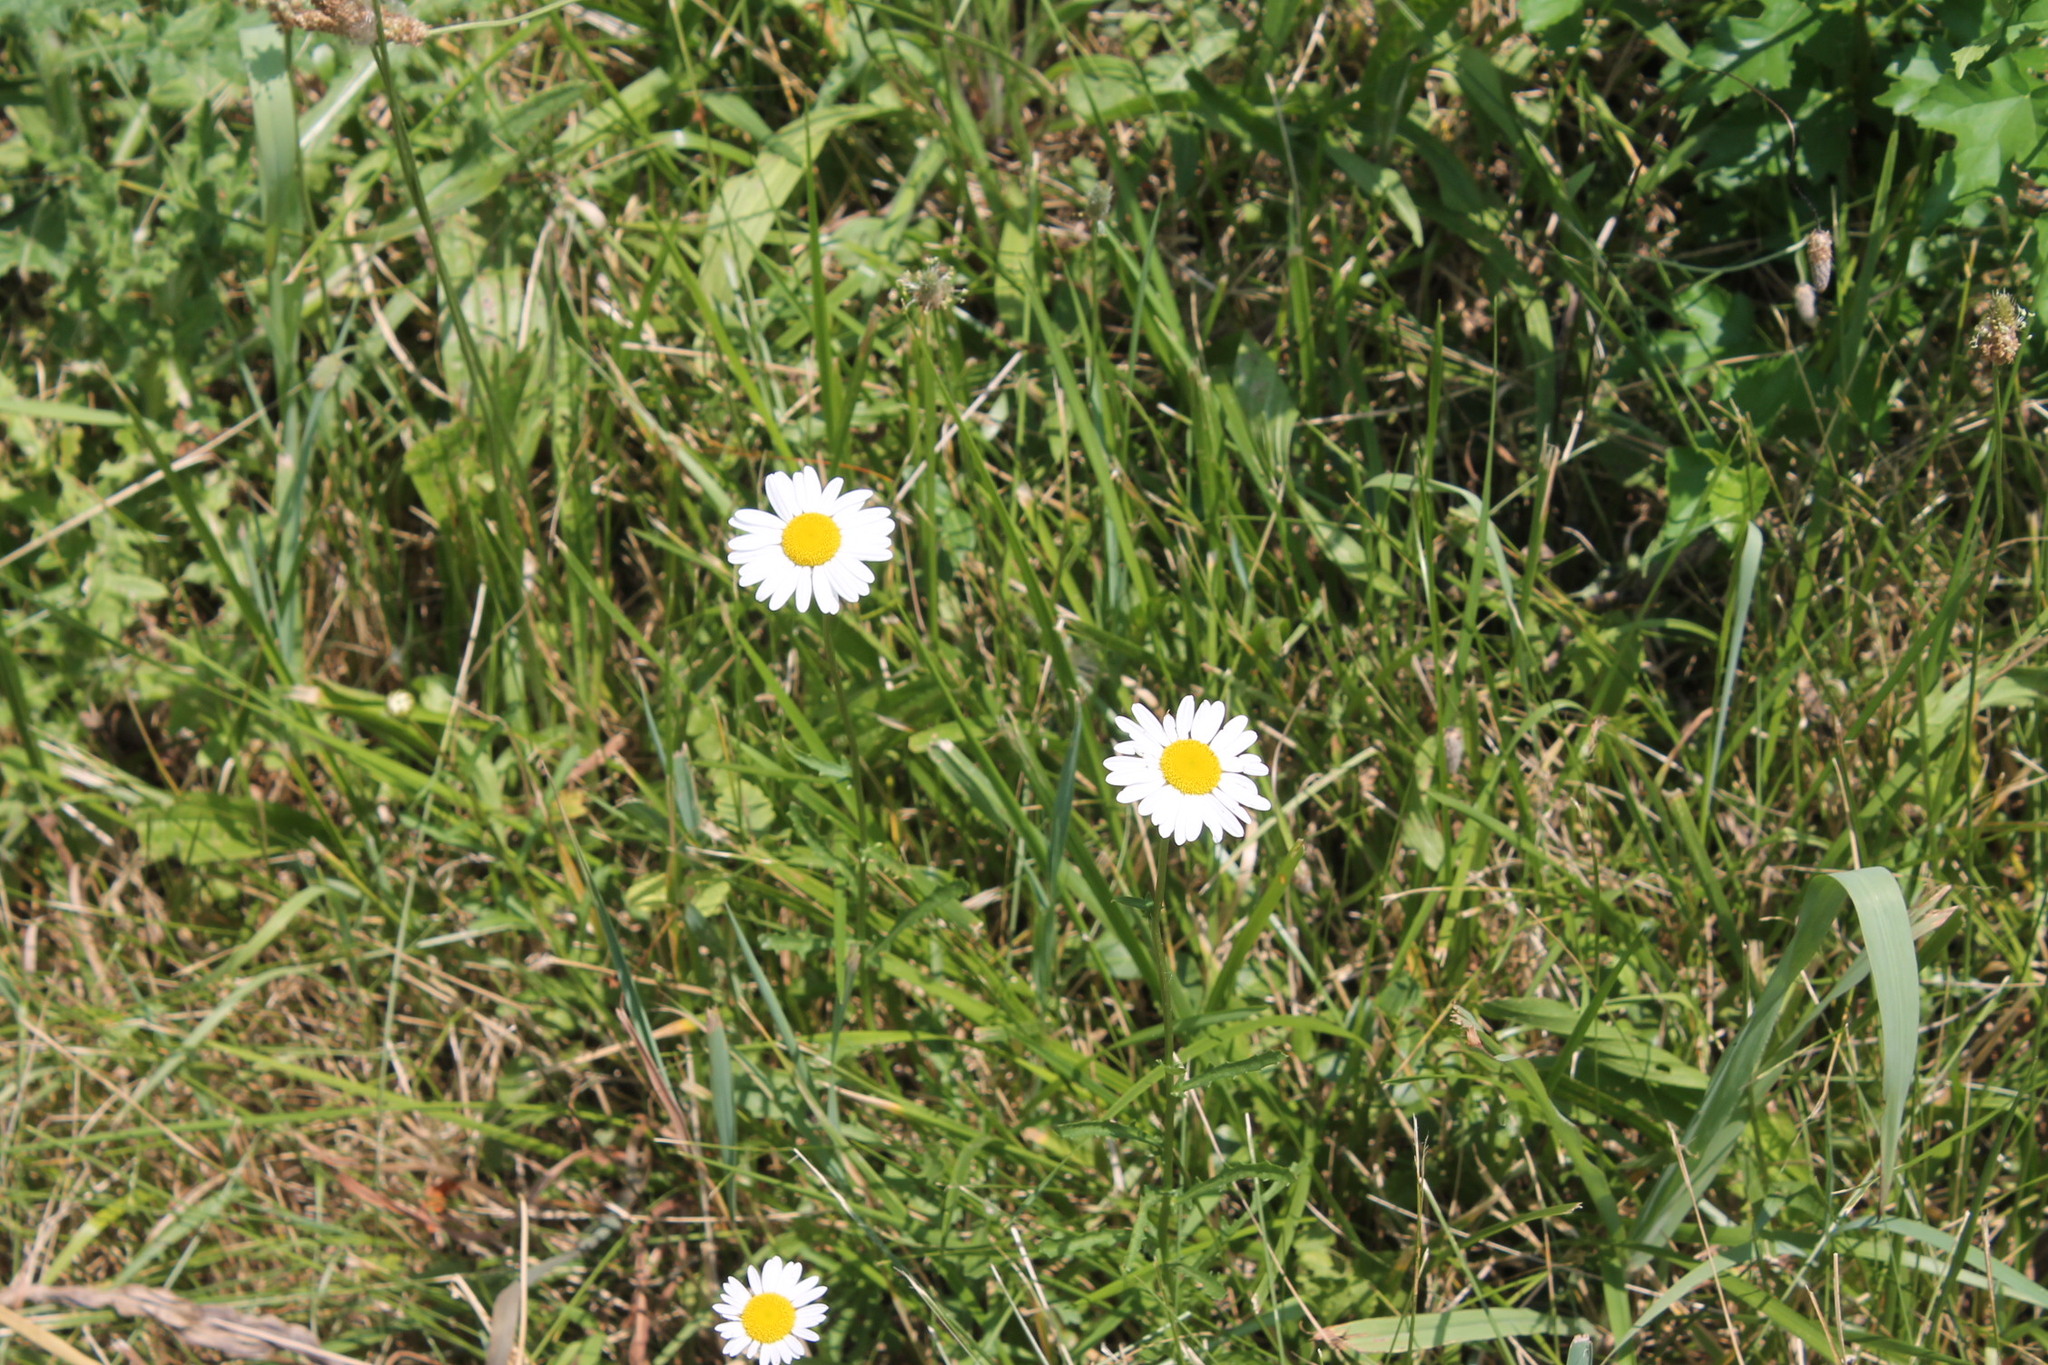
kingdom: Plantae
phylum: Tracheophyta
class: Magnoliopsida
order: Asterales
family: Asteraceae
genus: Leucanthemum
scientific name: Leucanthemum vulgare
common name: Oxeye daisy
